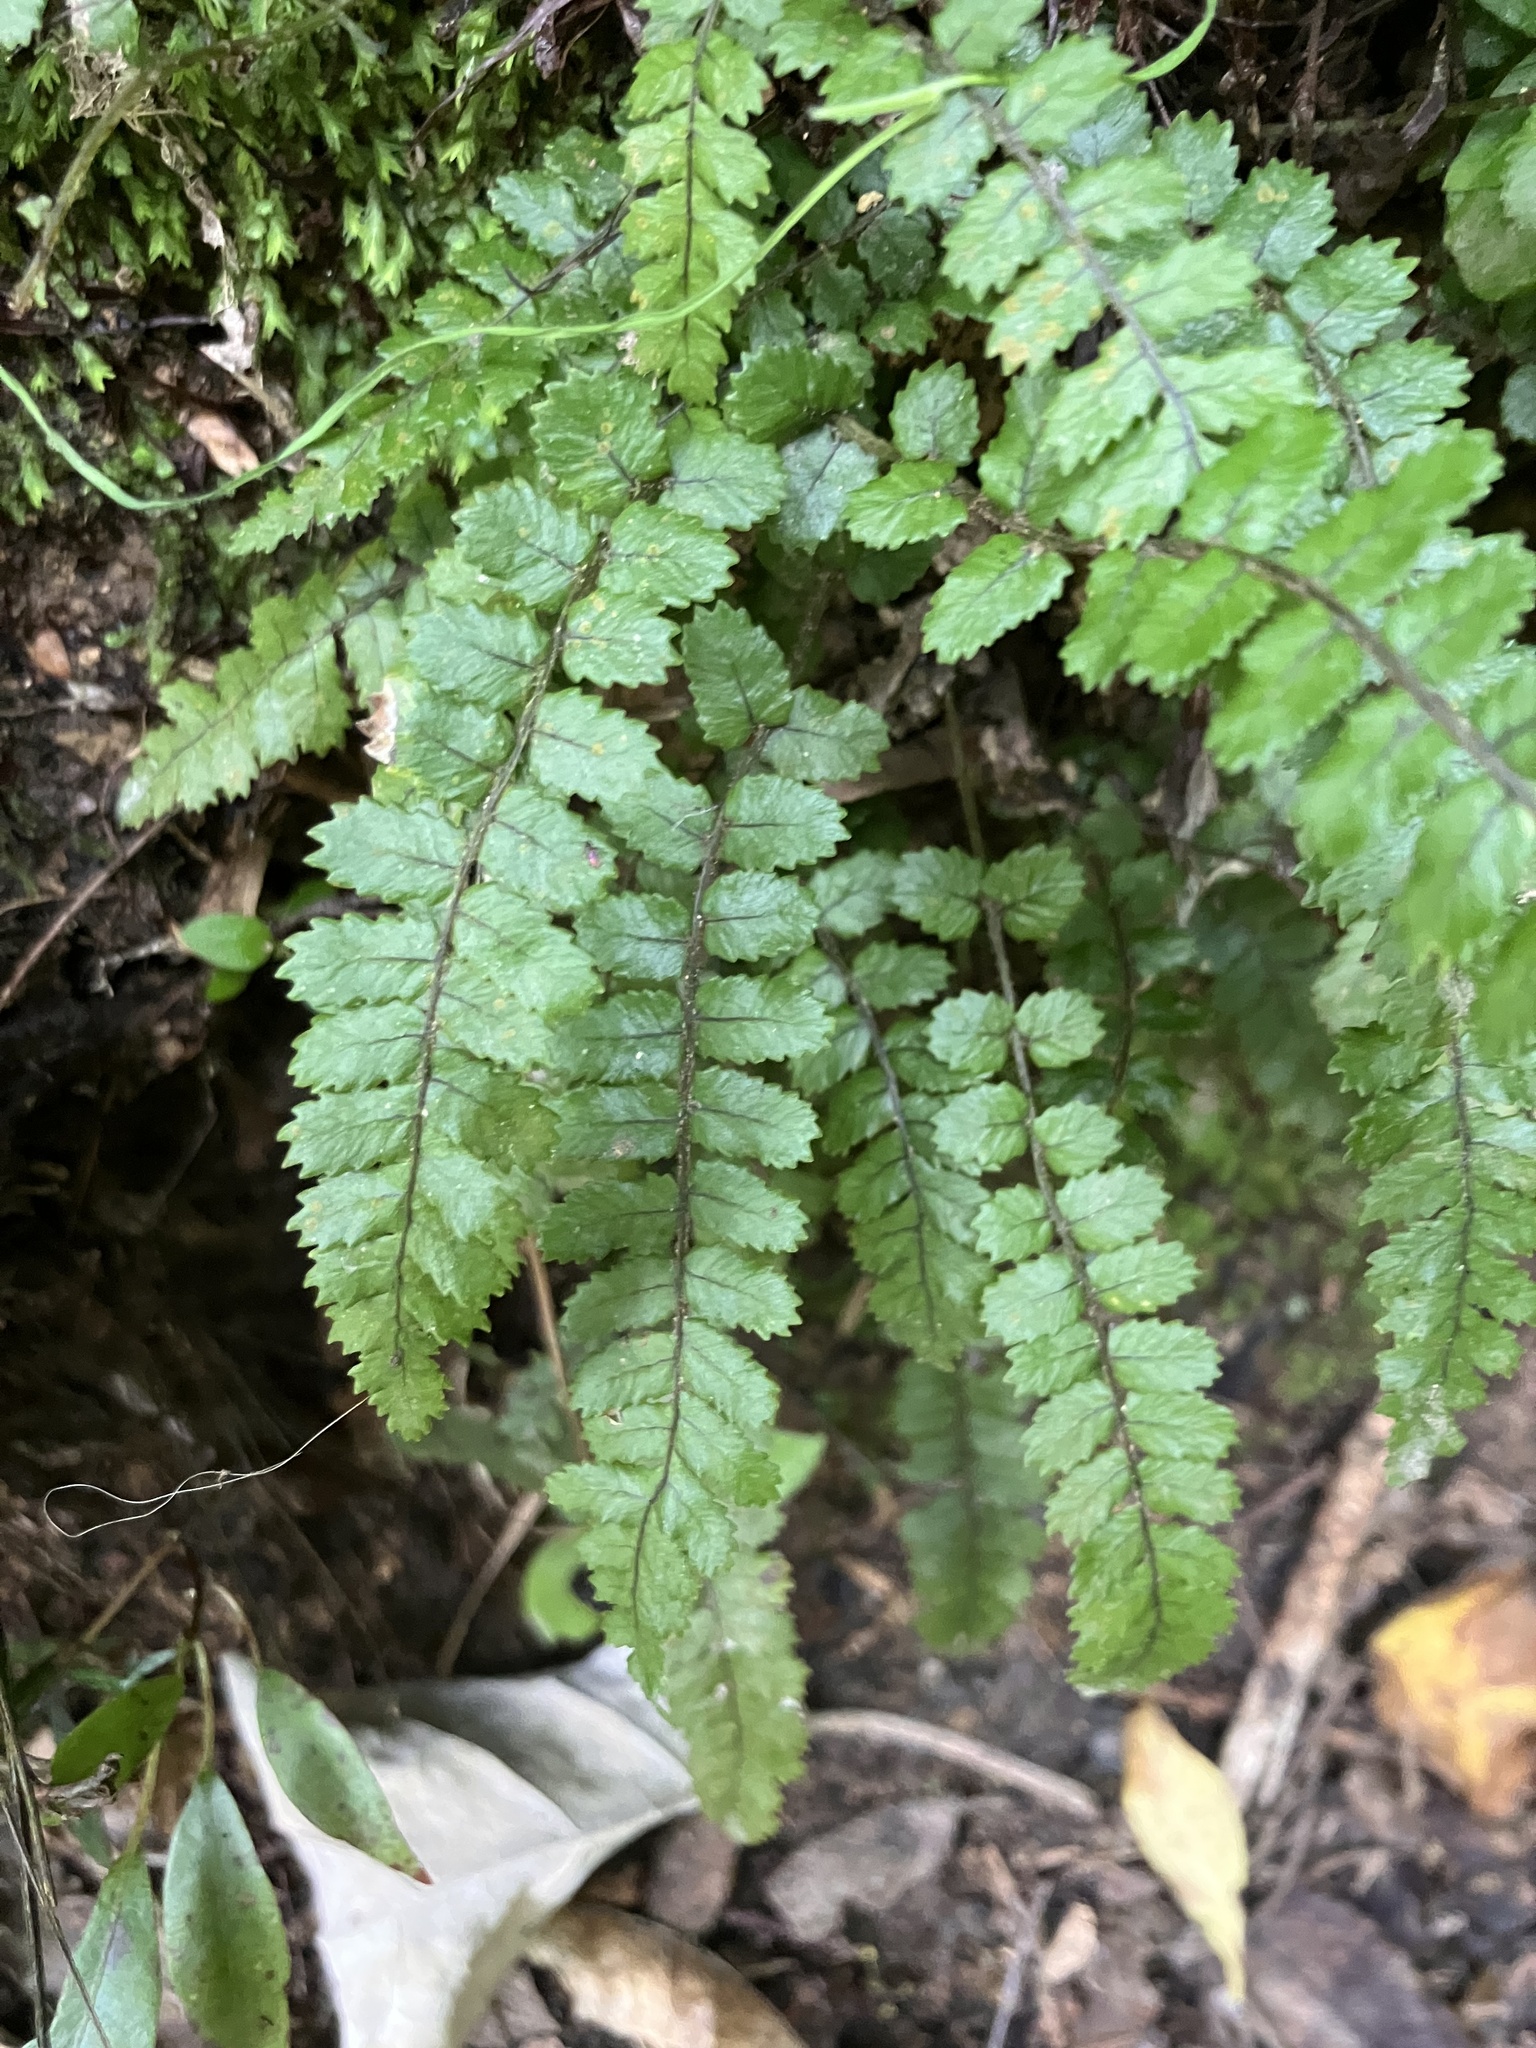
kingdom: Plantae
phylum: Tracheophyta
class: Polypodiopsida
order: Polypodiales
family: Blechnaceae
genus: Icarus
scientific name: Icarus filiformis
